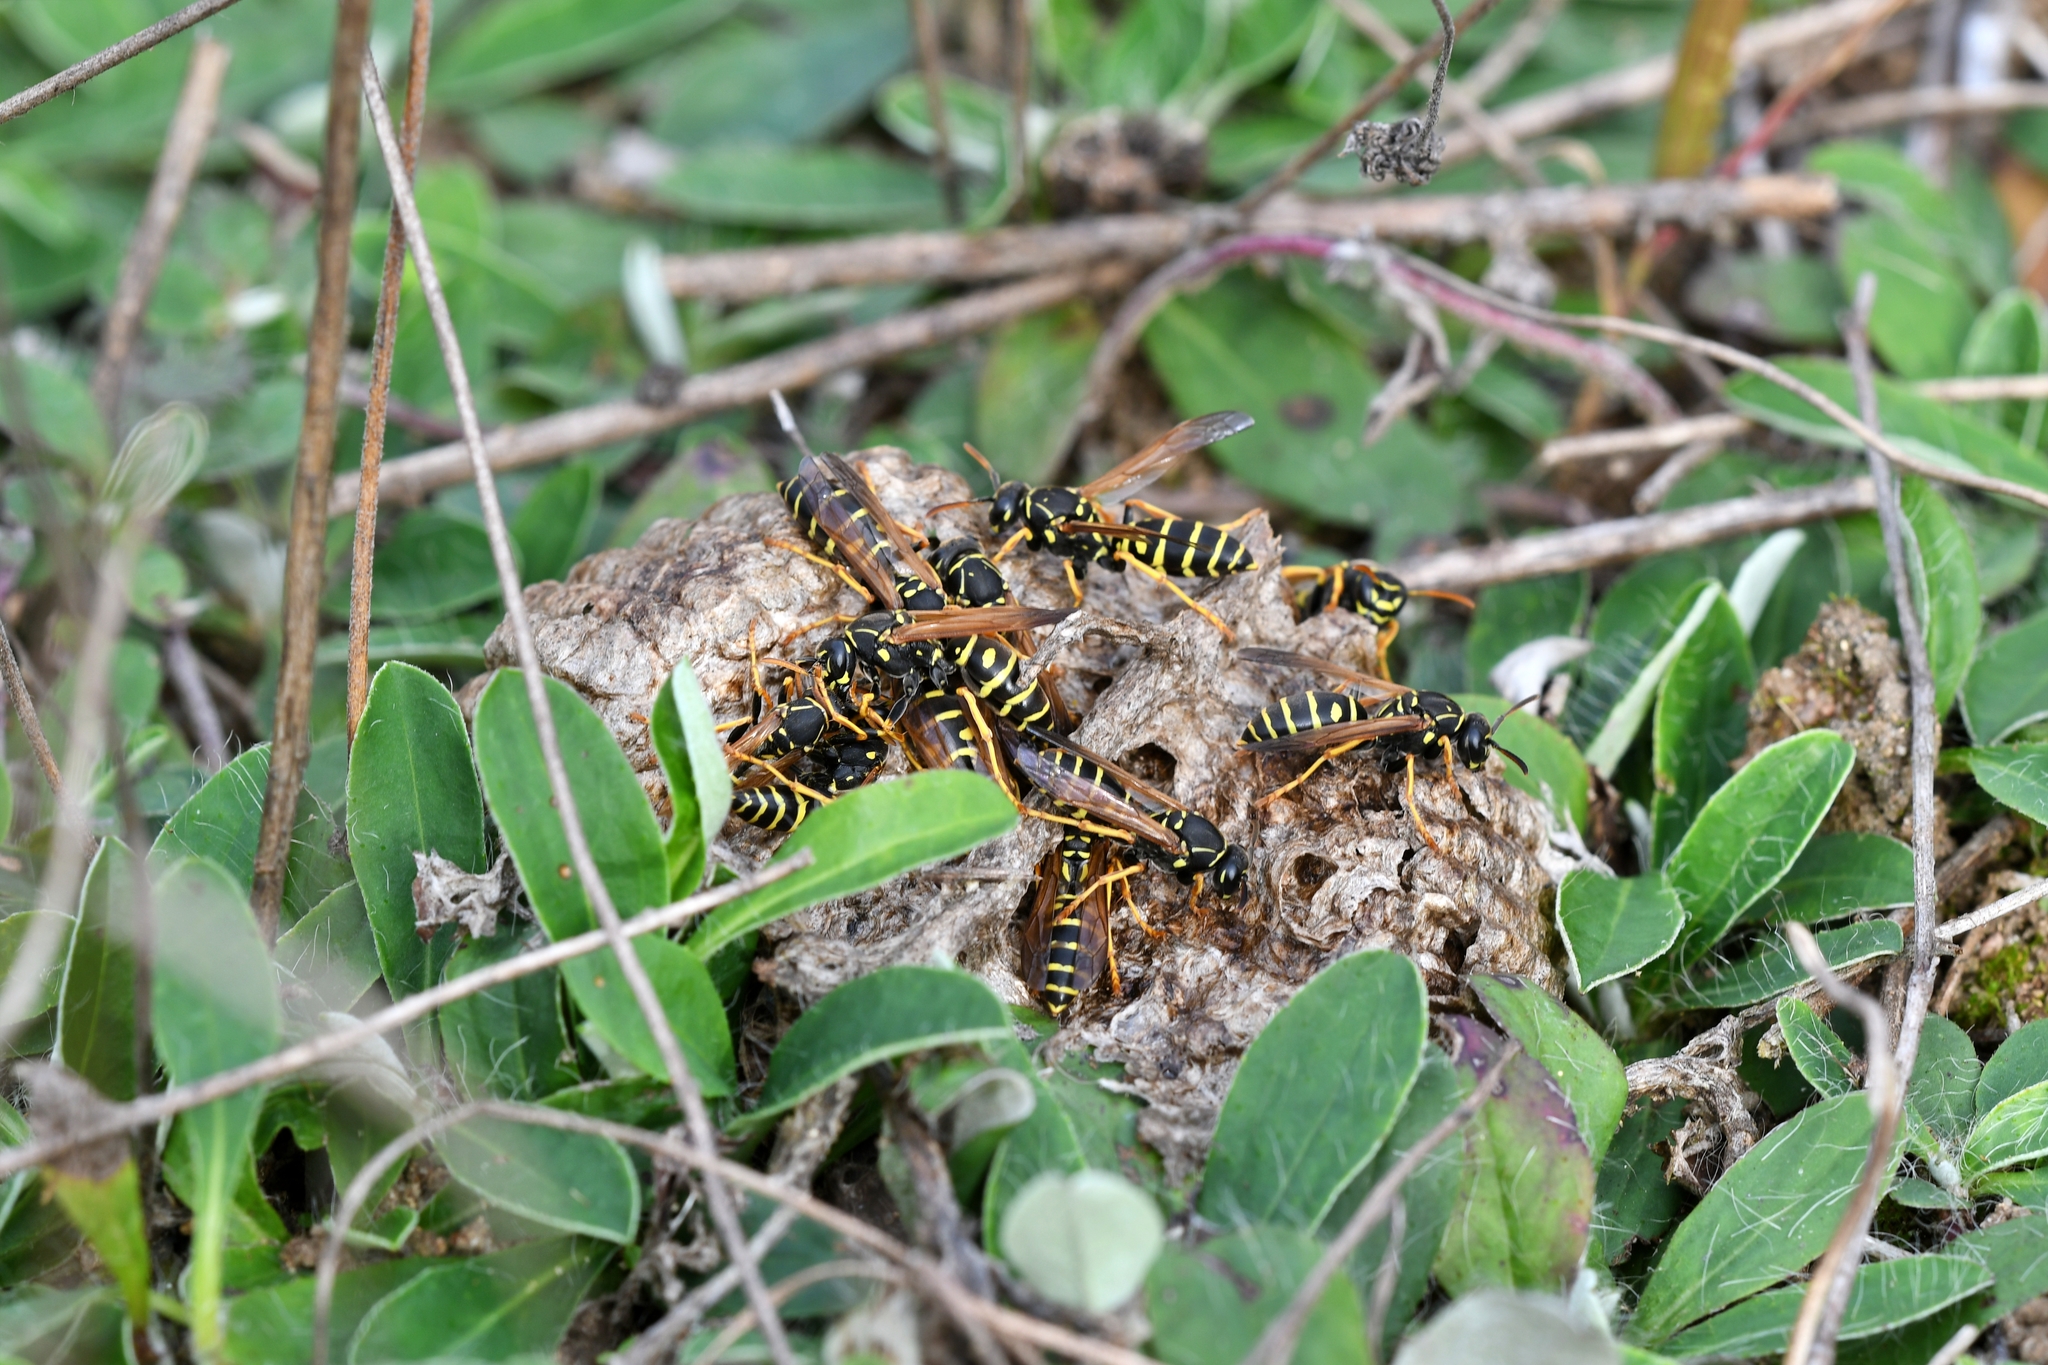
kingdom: Animalia
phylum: Arthropoda
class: Insecta
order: Hymenoptera
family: Eumenidae
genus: Polistes
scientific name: Polistes nimpha
